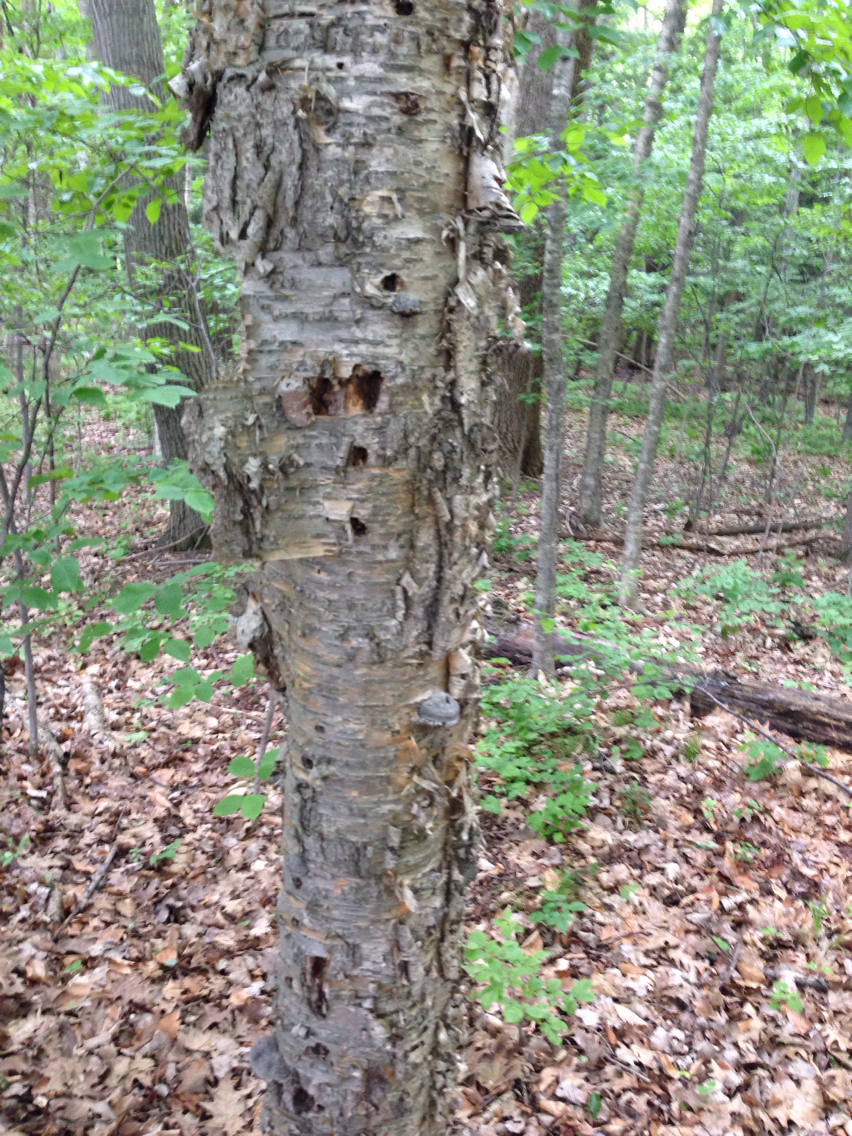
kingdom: Plantae
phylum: Tracheophyta
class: Magnoliopsida
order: Fagales
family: Betulaceae
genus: Betula
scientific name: Betula alleghaniensis
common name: Yellow birch
